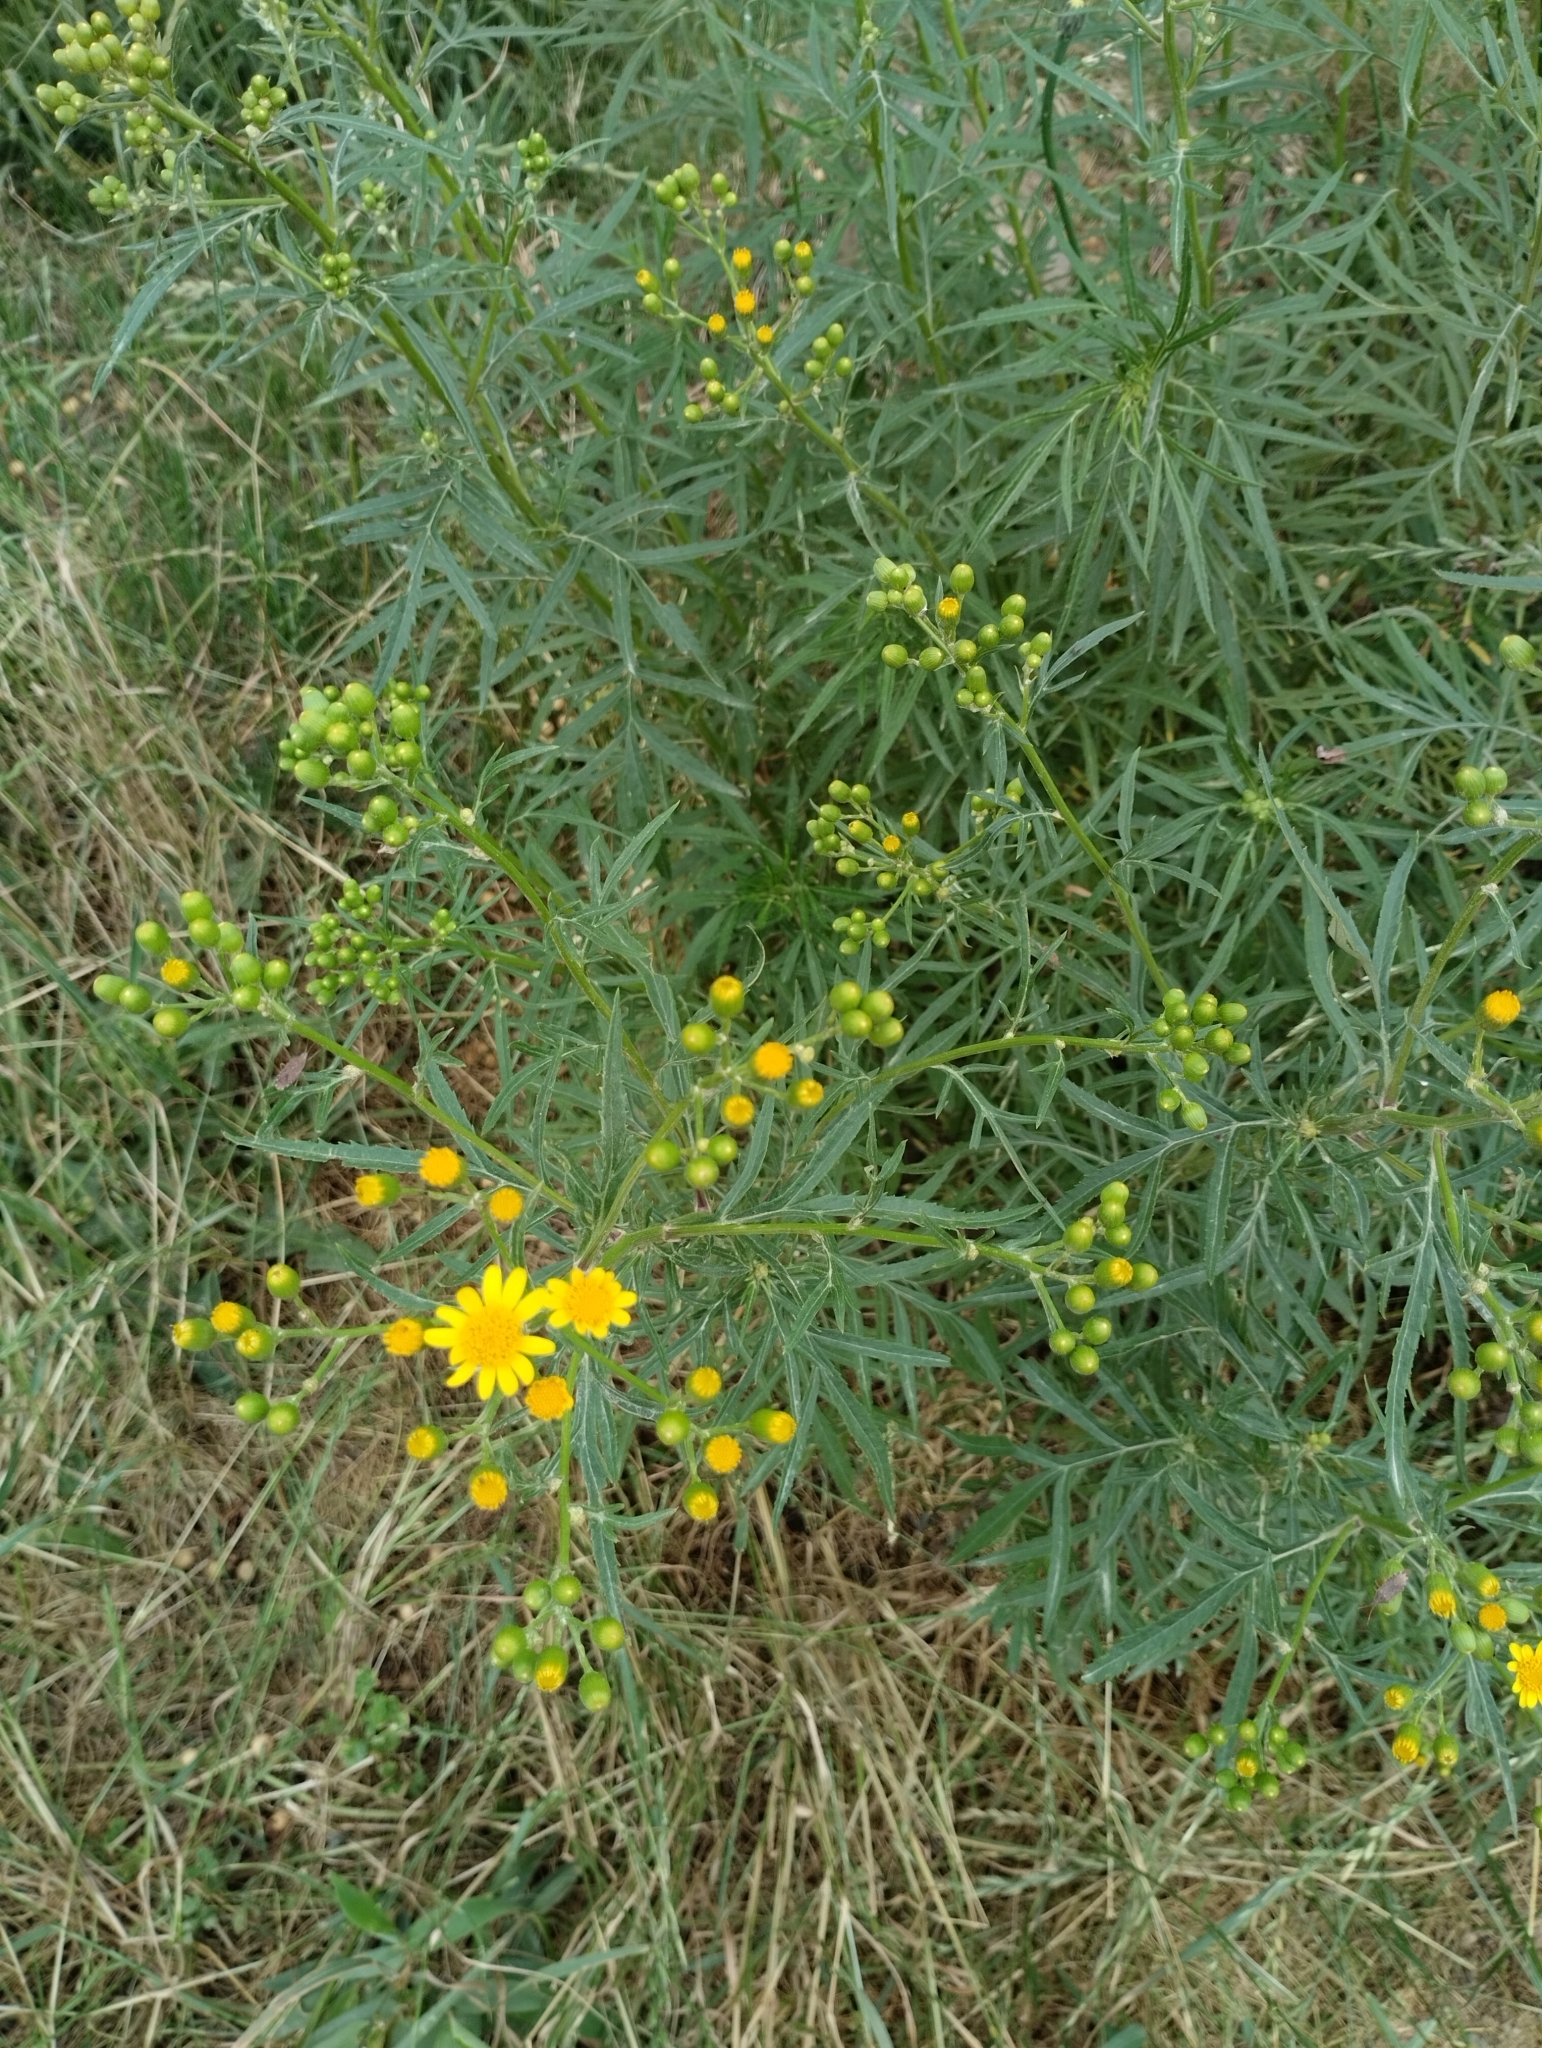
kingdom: Plantae
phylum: Tracheophyta
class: Magnoliopsida
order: Asterales
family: Asteraceae
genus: Senecio
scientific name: Senecio brasiliensis
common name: Hemp-leaf ragwort
